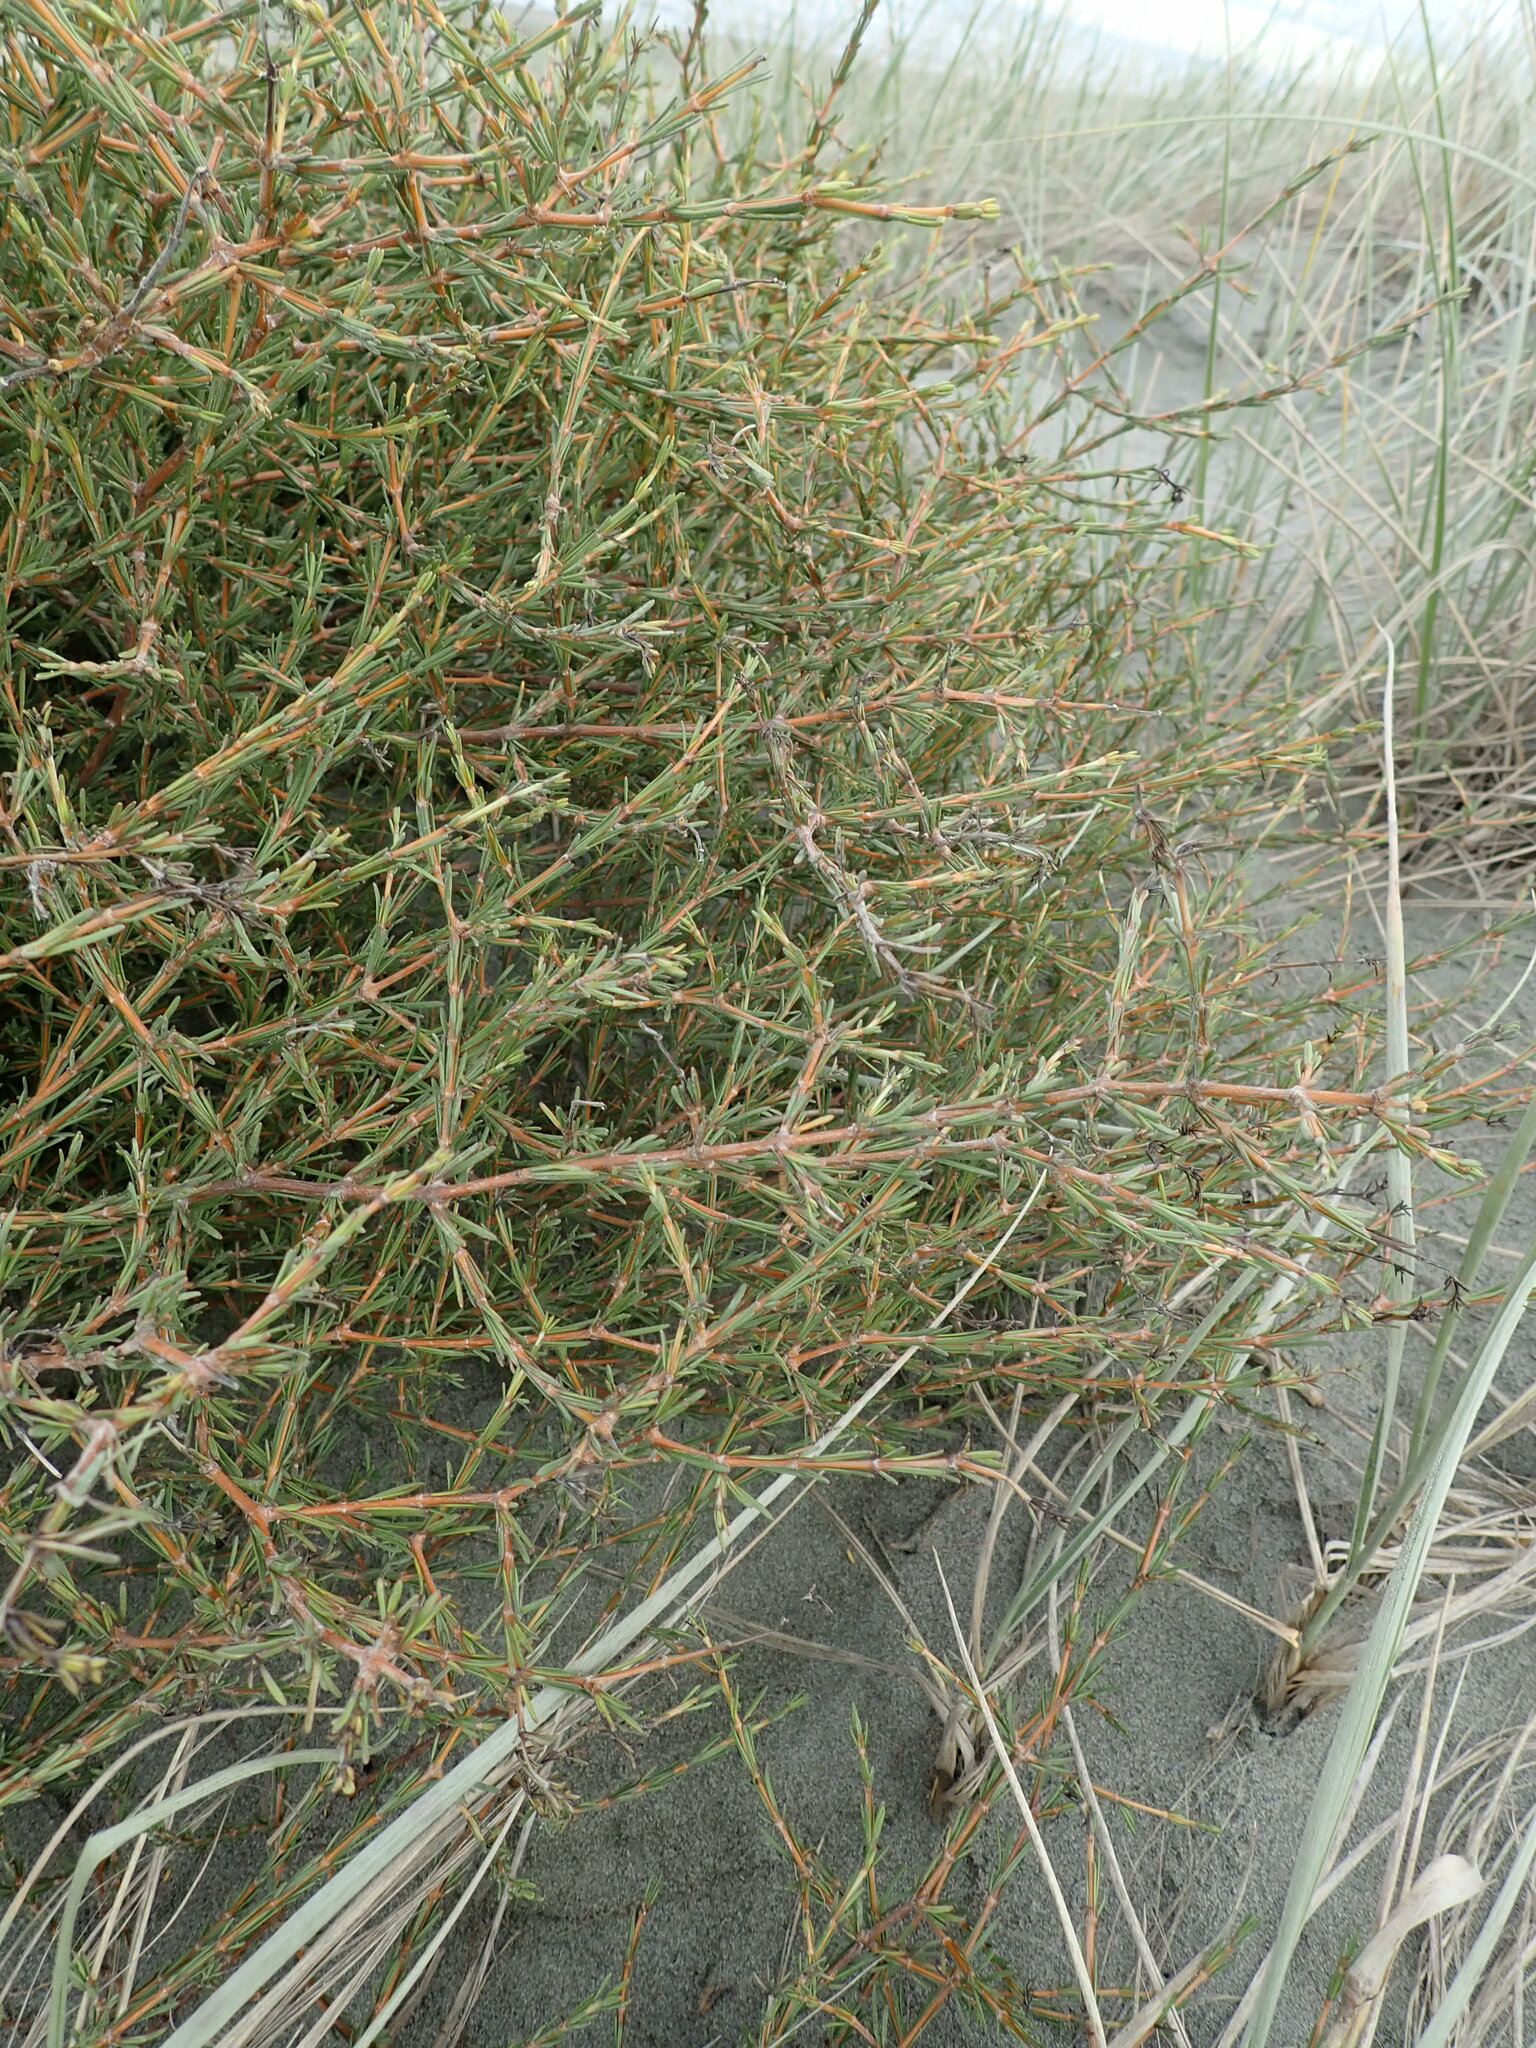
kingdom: Plantae
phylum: Tracheophyta
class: Magnoliopsida
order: Gentianales
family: Rubiaceae
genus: Coprosma
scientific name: Coprosma acerosa
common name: Sand coprosma
